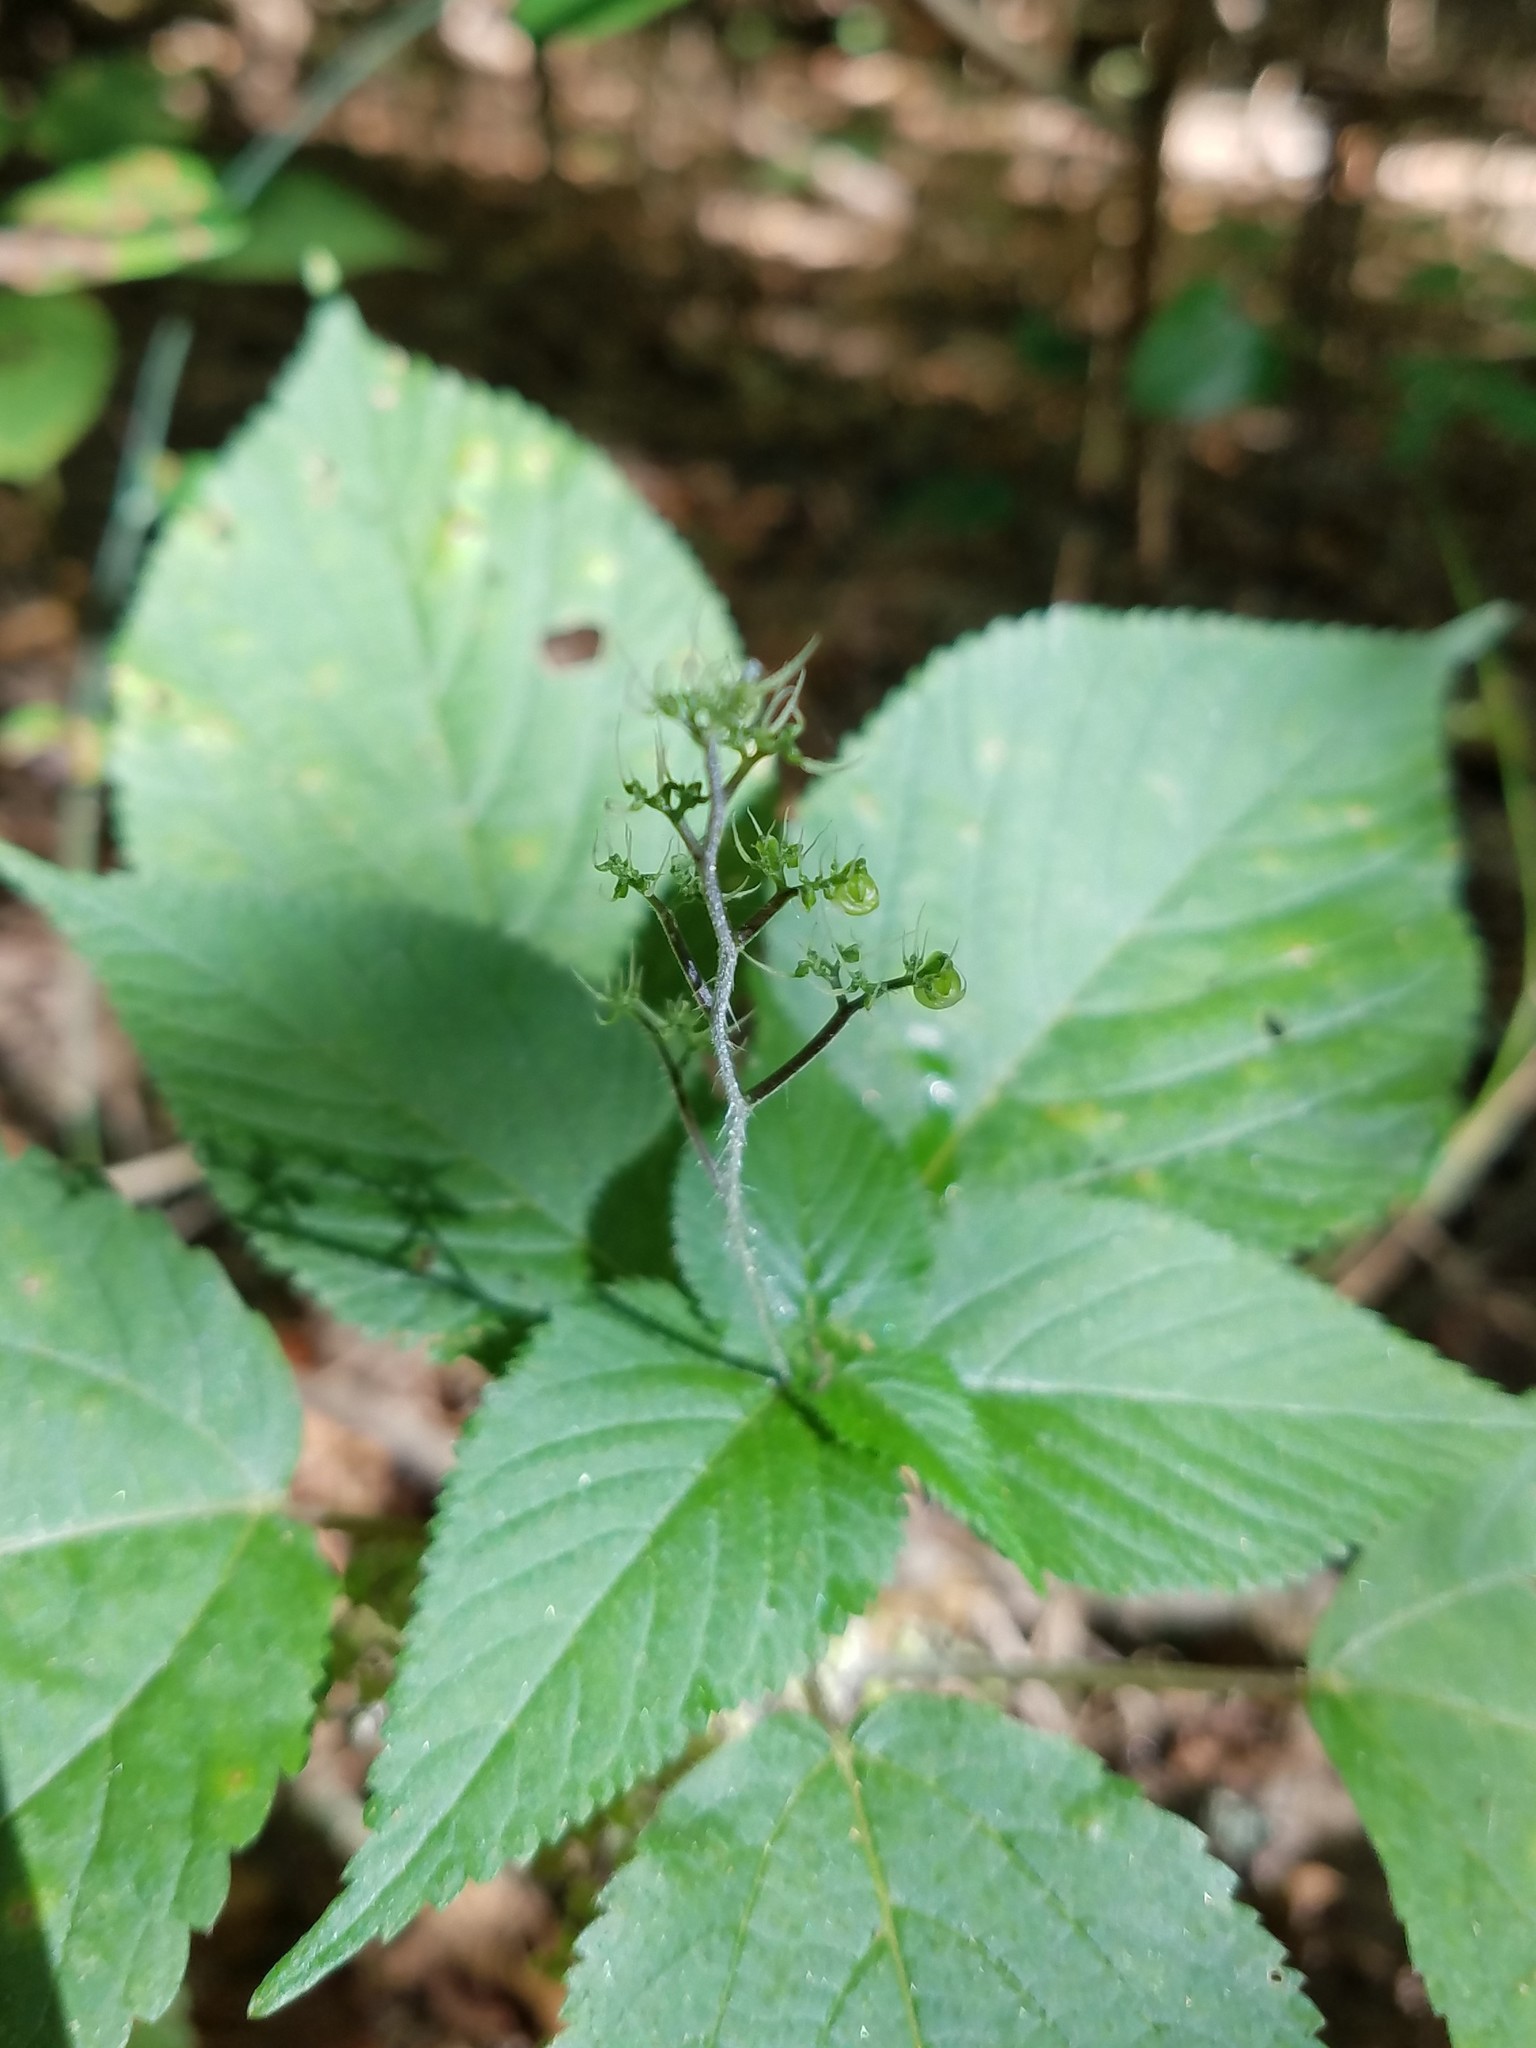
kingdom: Plantae
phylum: Tracheophyta
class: Magnoliopsida
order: Rosales
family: Urticaceae
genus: Laportea
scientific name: Laportea canadensis
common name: Canada nettle
